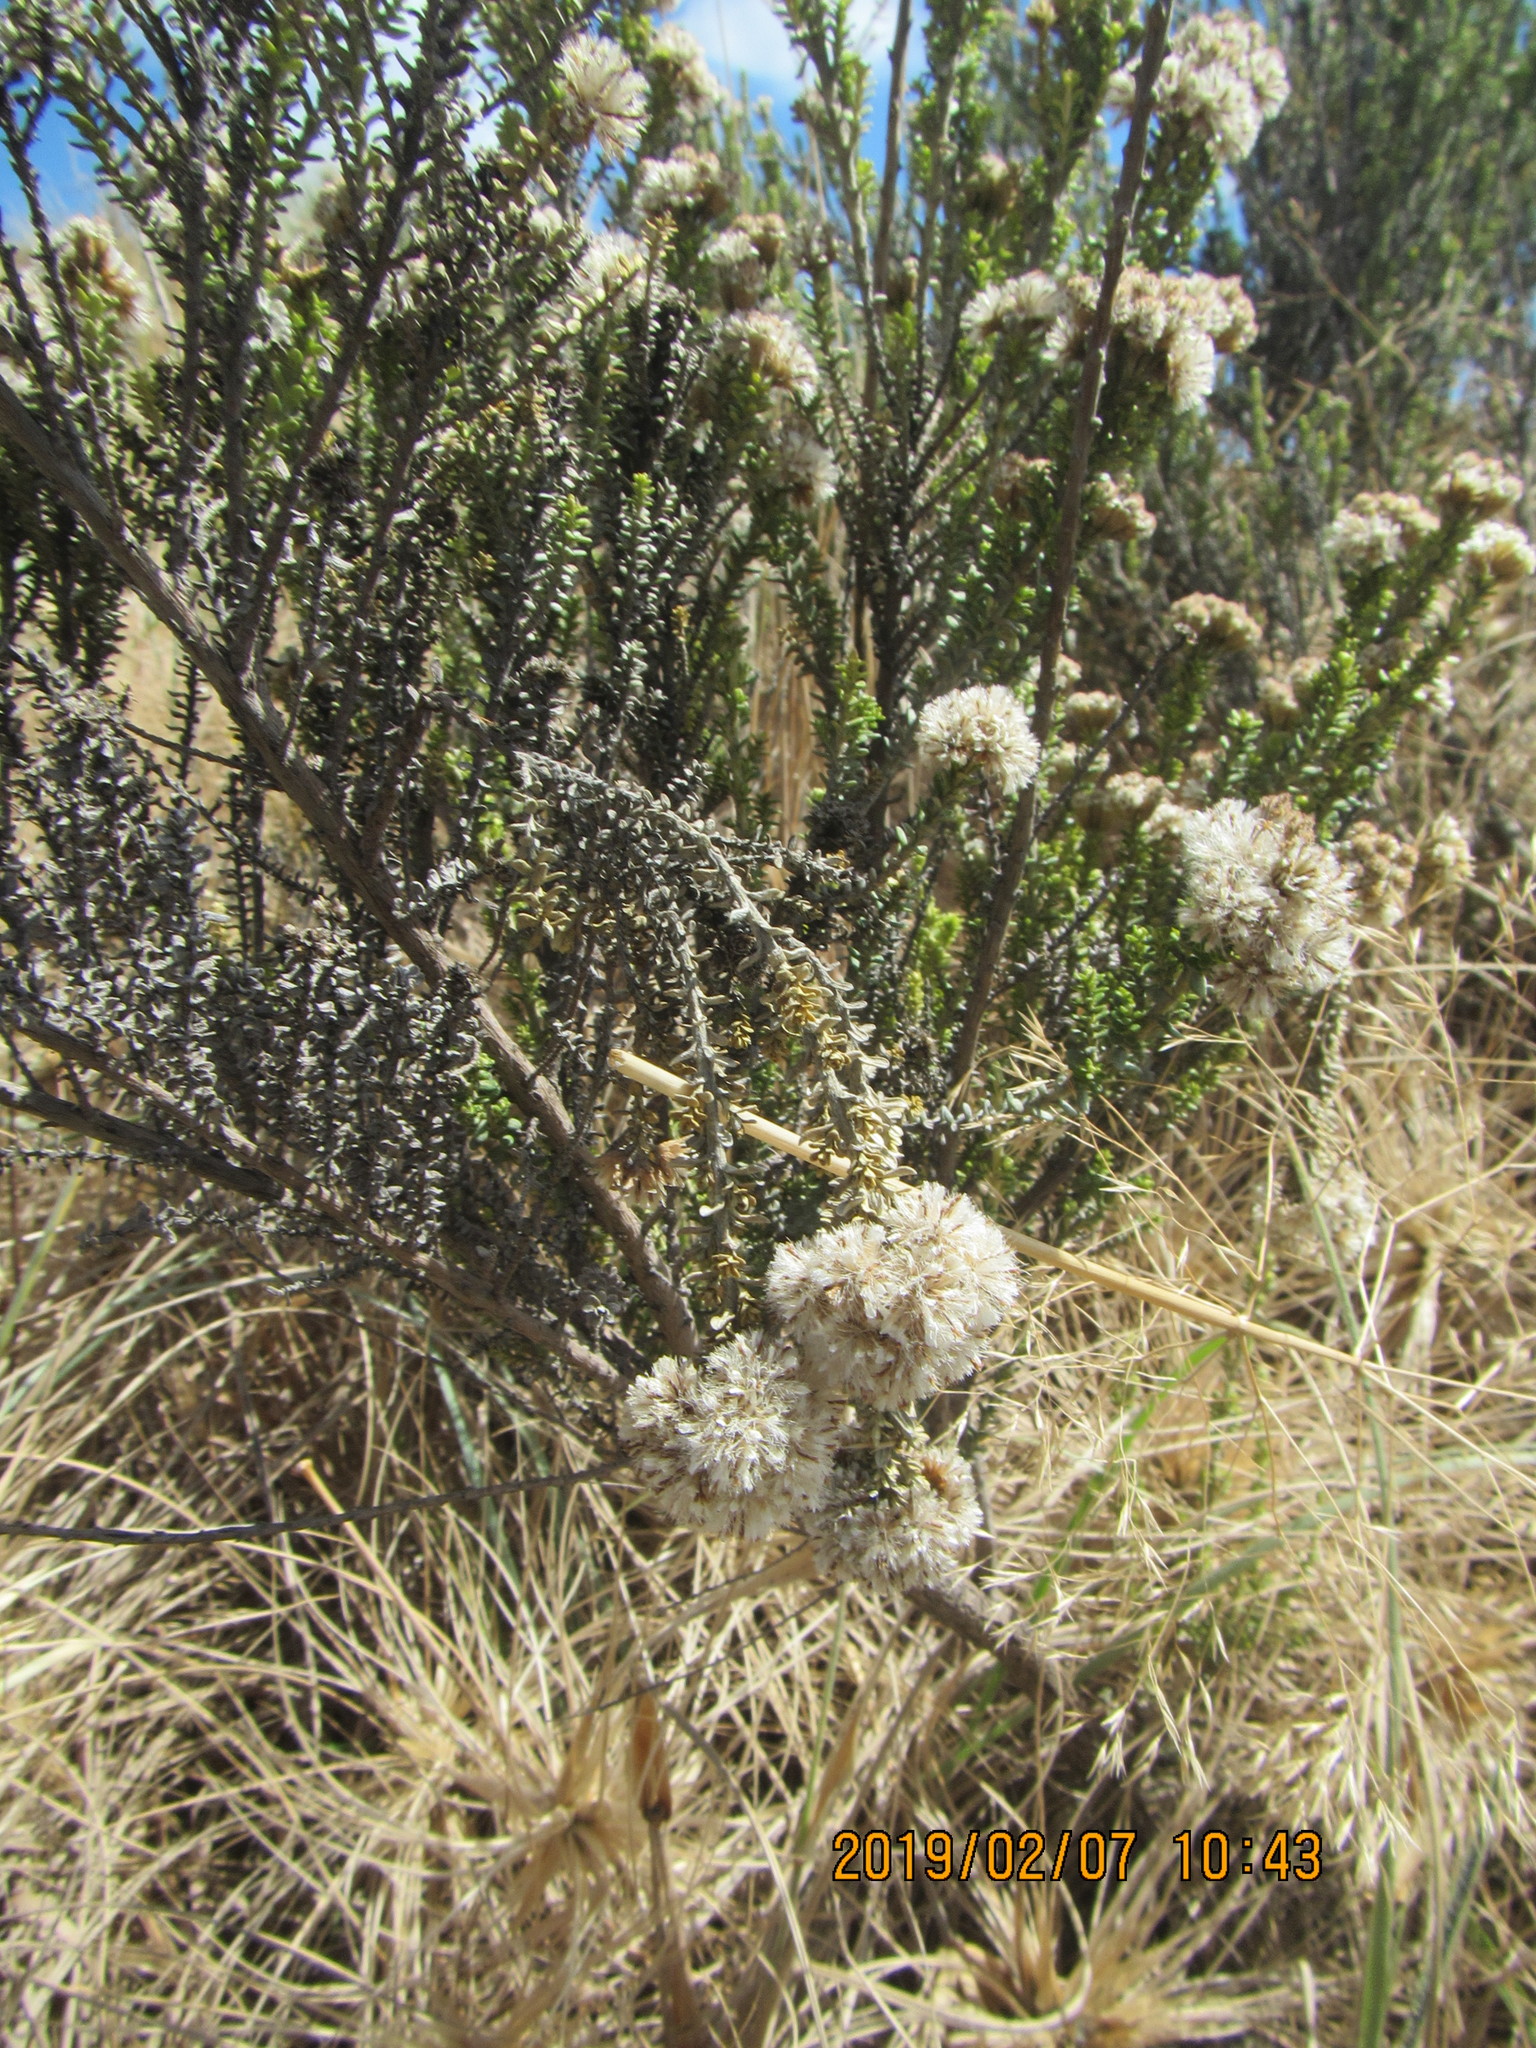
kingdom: Plantae
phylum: Tracheophyta
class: Magnoliopsida
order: Asterales
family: Asteraceae
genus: Ozothamnus
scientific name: Ozothamnus leptophyllus
